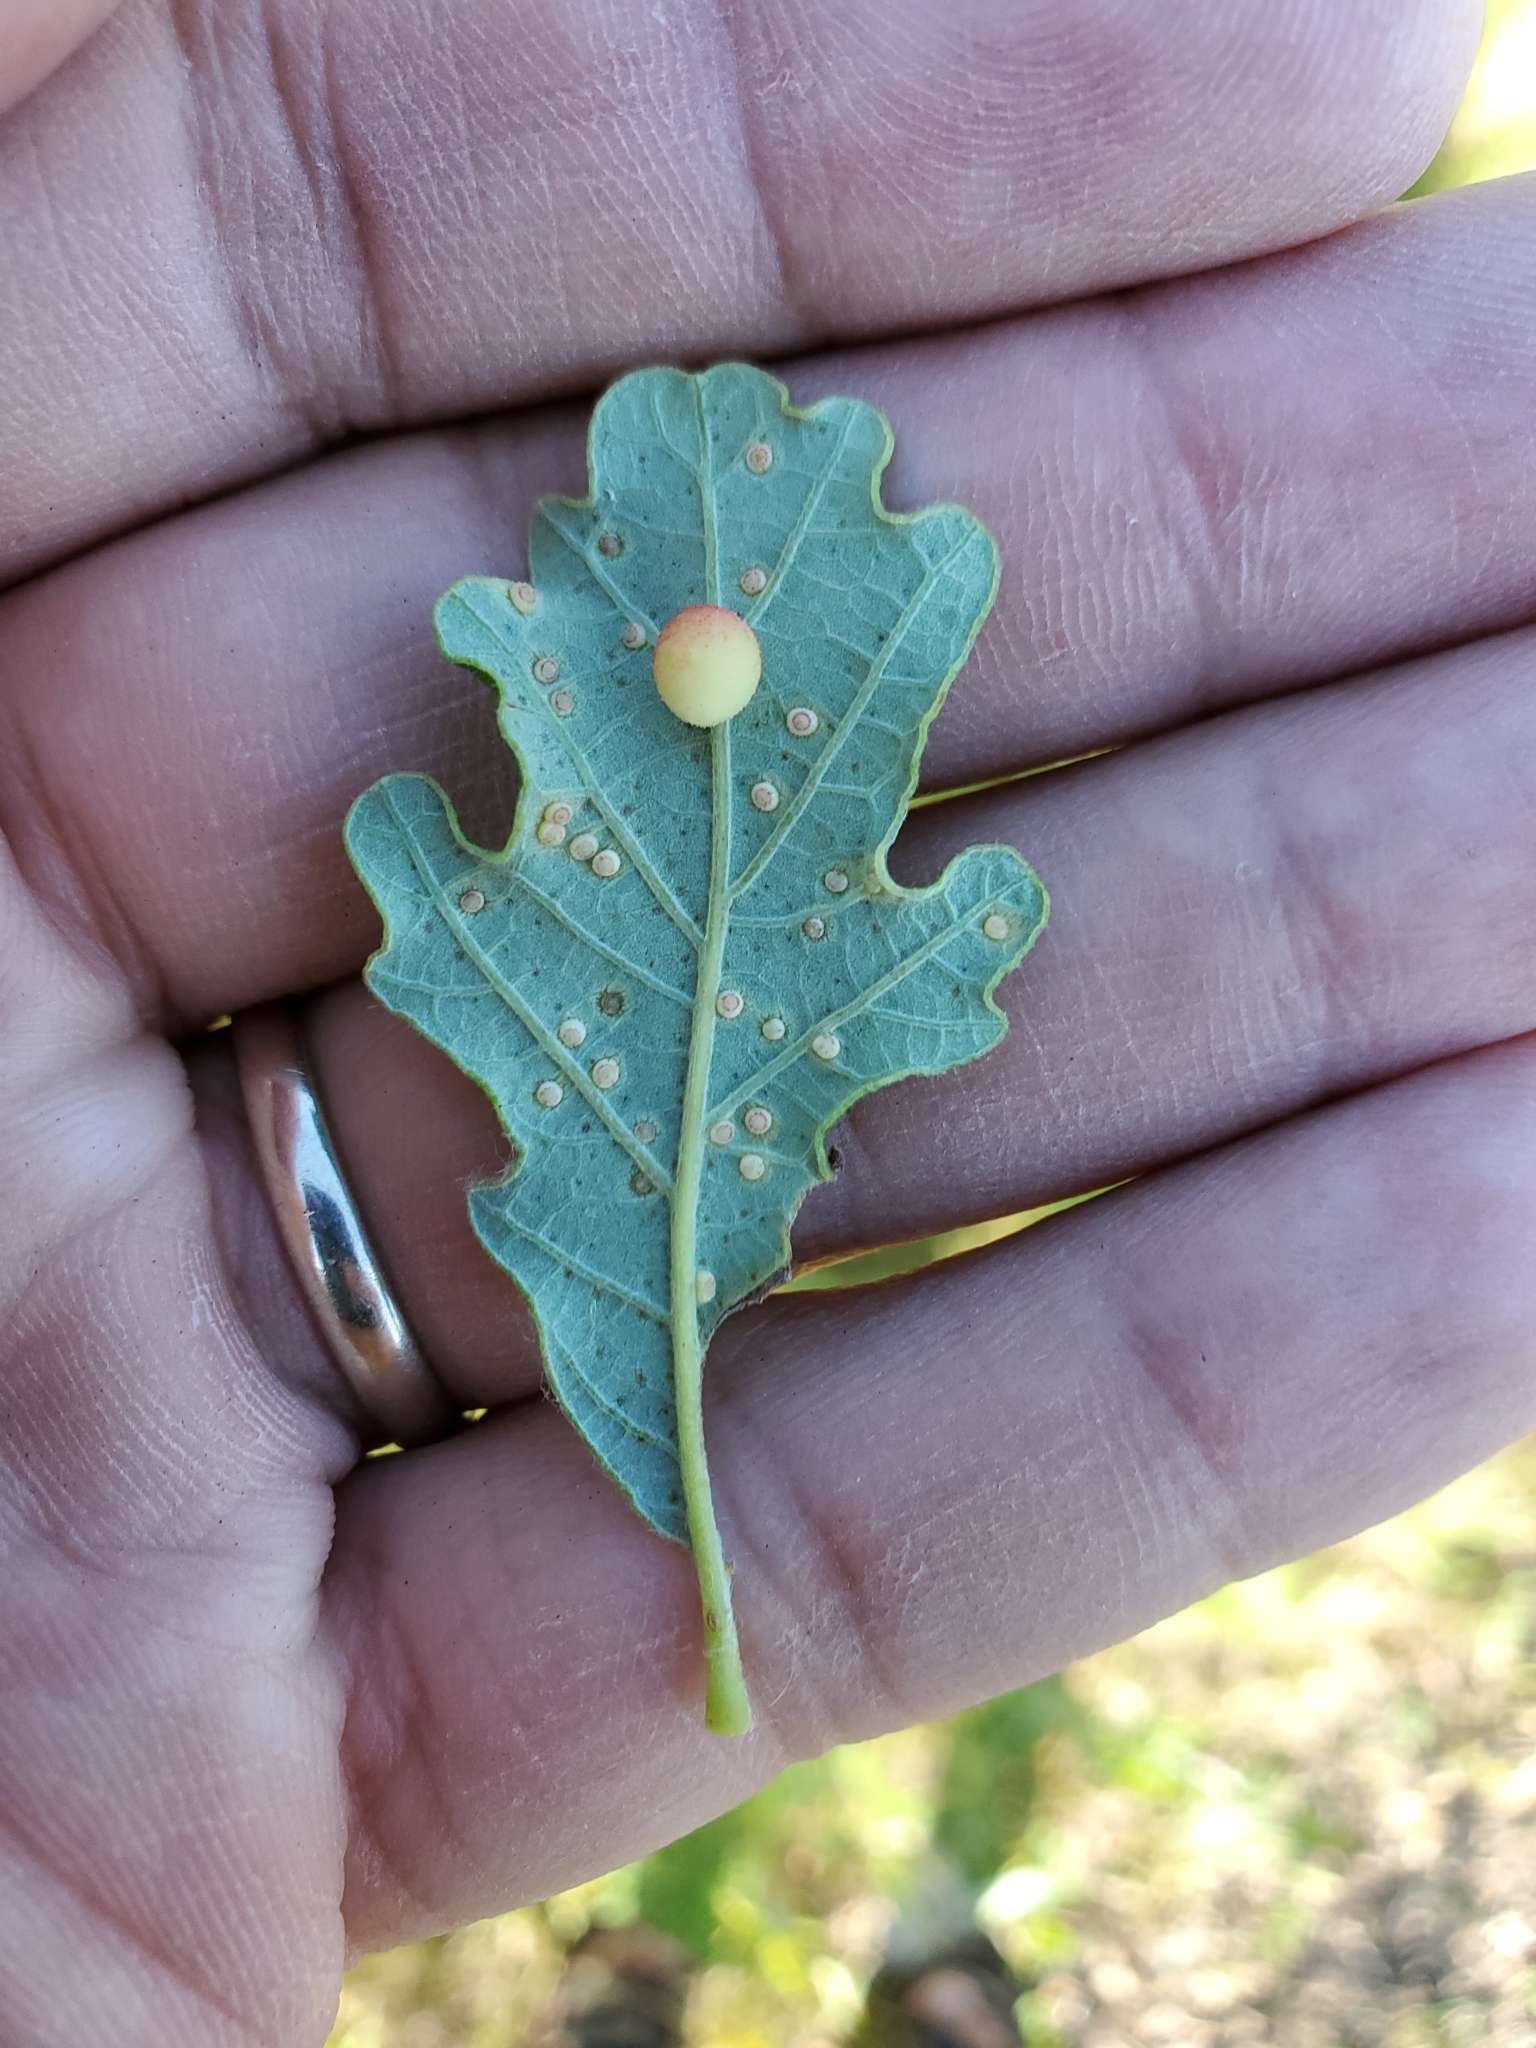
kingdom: Animalia
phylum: Arthropoda
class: Insecta
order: Hymenoptera
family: Cynipidae
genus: Acraspis
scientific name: Acraspis quercushirta
